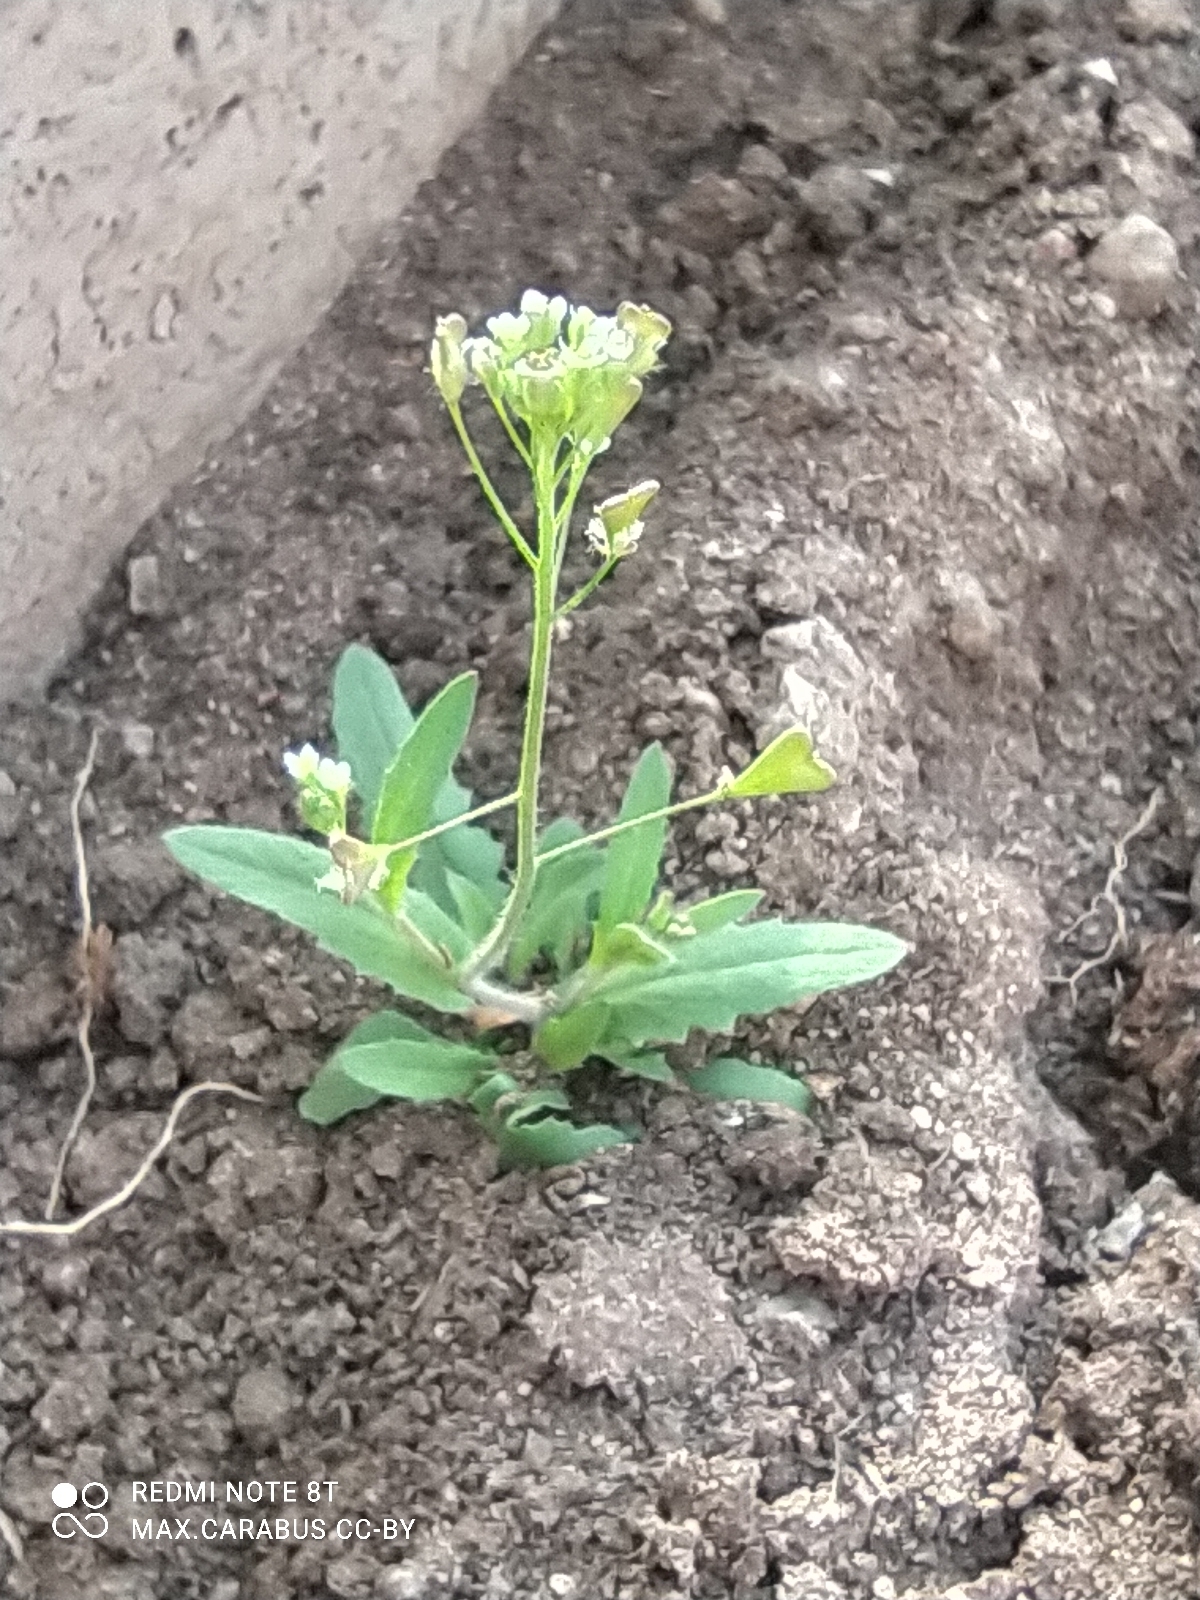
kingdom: Plantae
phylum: Tracheophyta
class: Magnoliopsida
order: Brassicales
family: Brassicaceae
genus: Capsella
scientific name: Capsella bursa-pastoris
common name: Shepherd's purse
